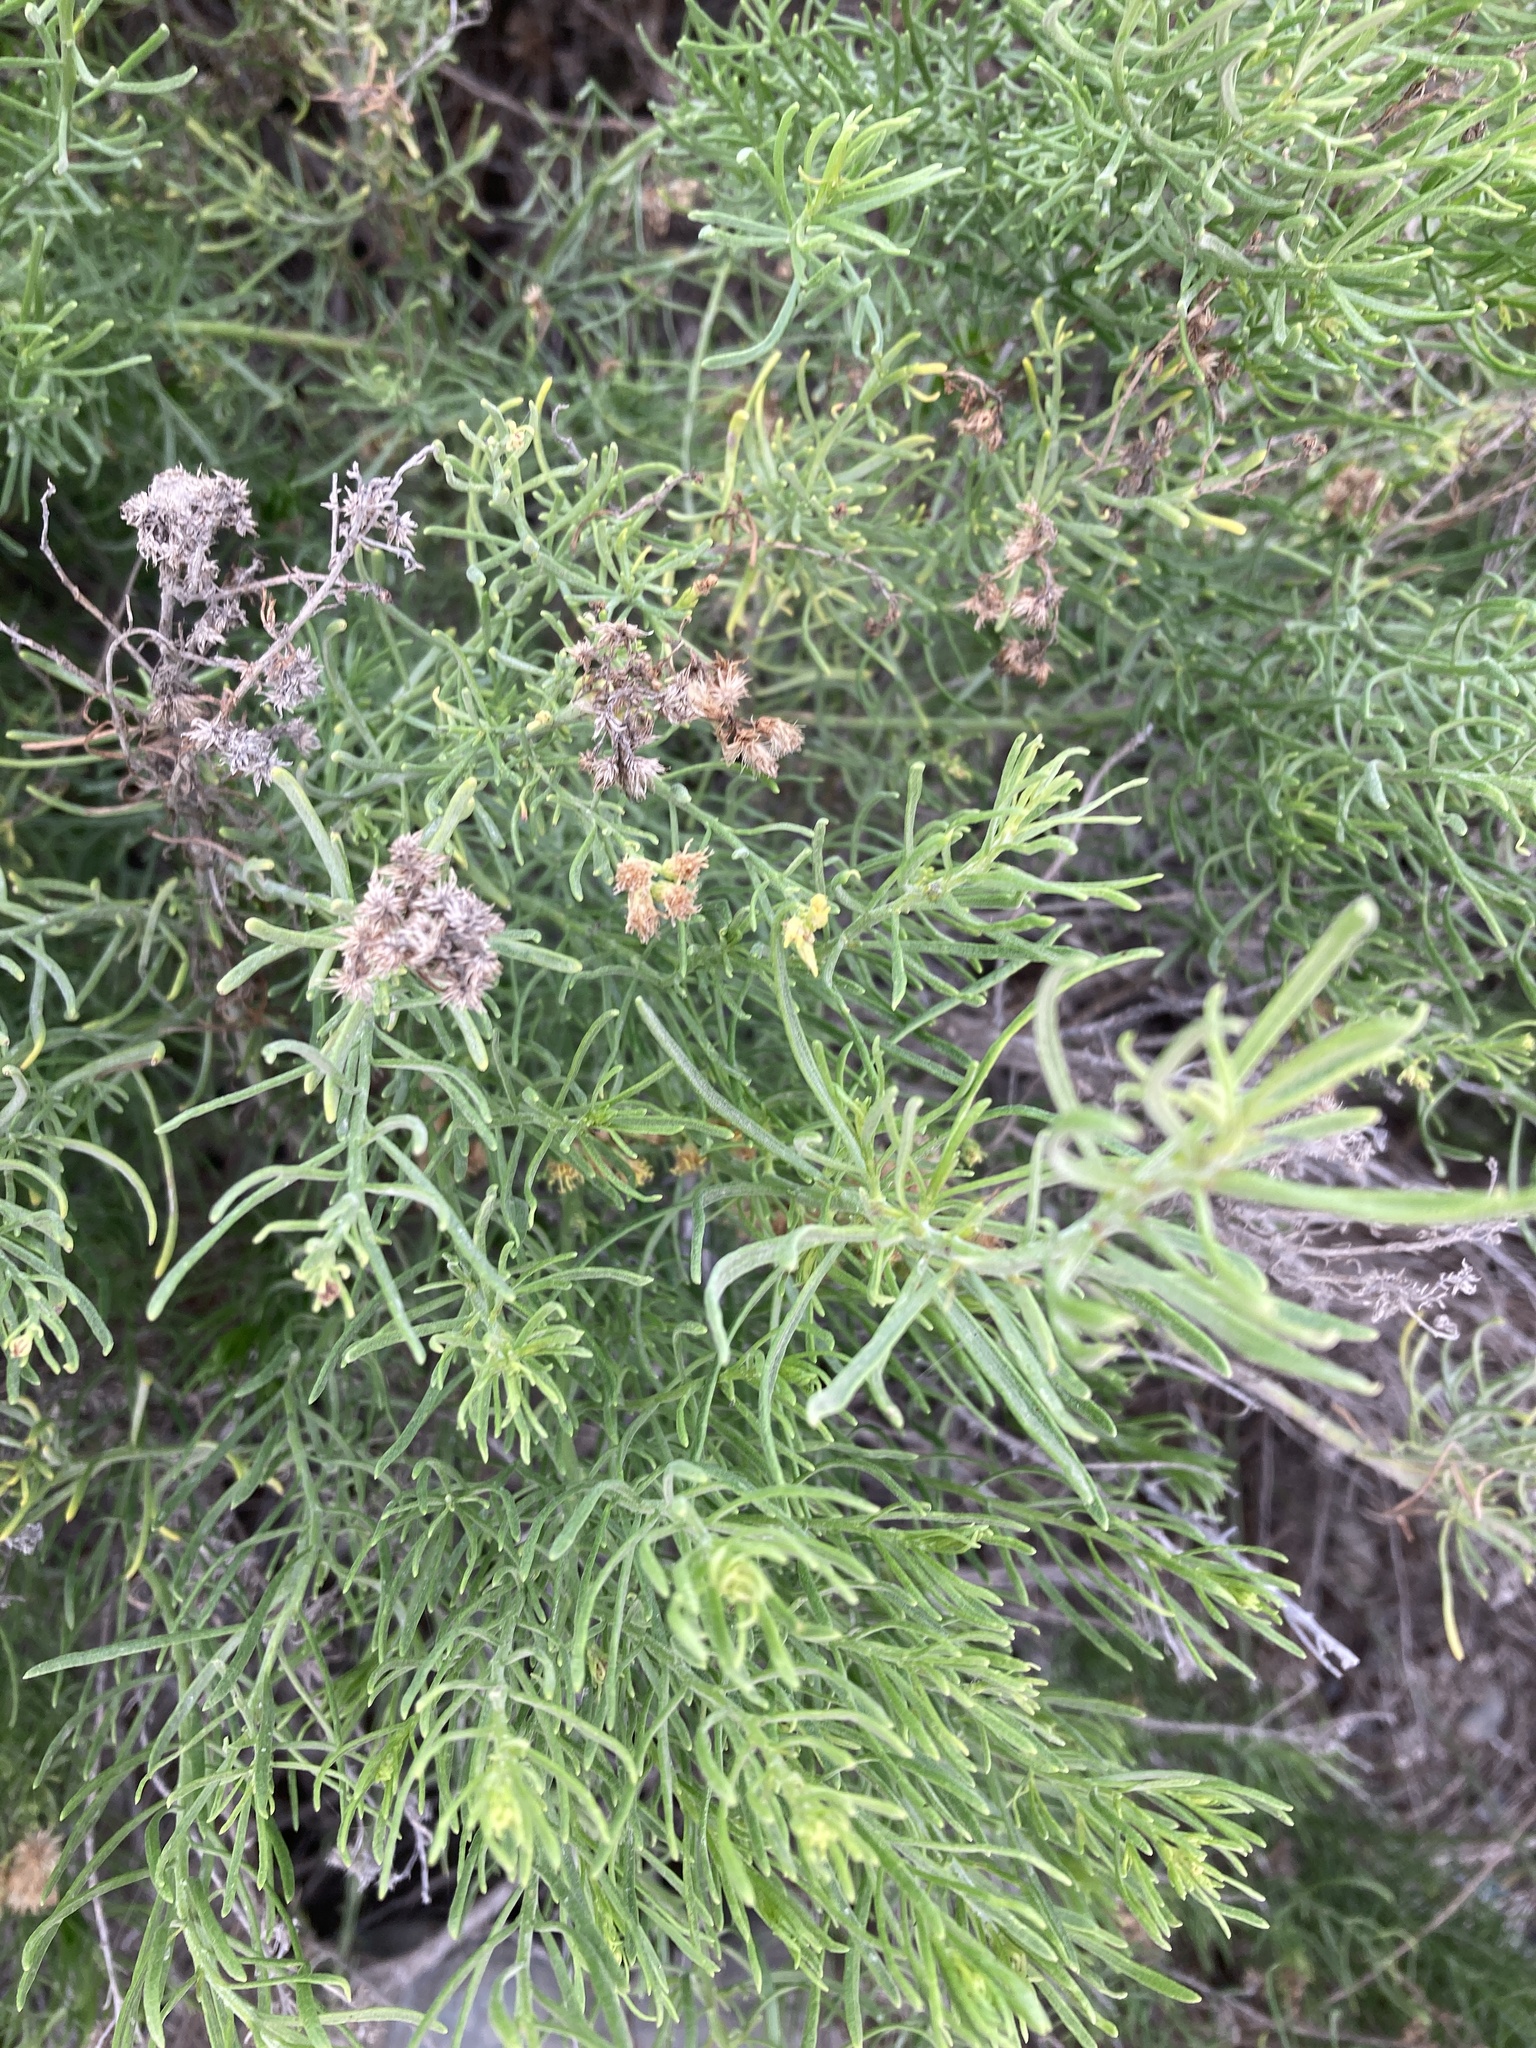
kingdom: Plantae
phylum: Tracheophyta
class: Magnoliopsida
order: Asterales
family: Asteraceae
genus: Schizogyne
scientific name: Schizogyne sericea
